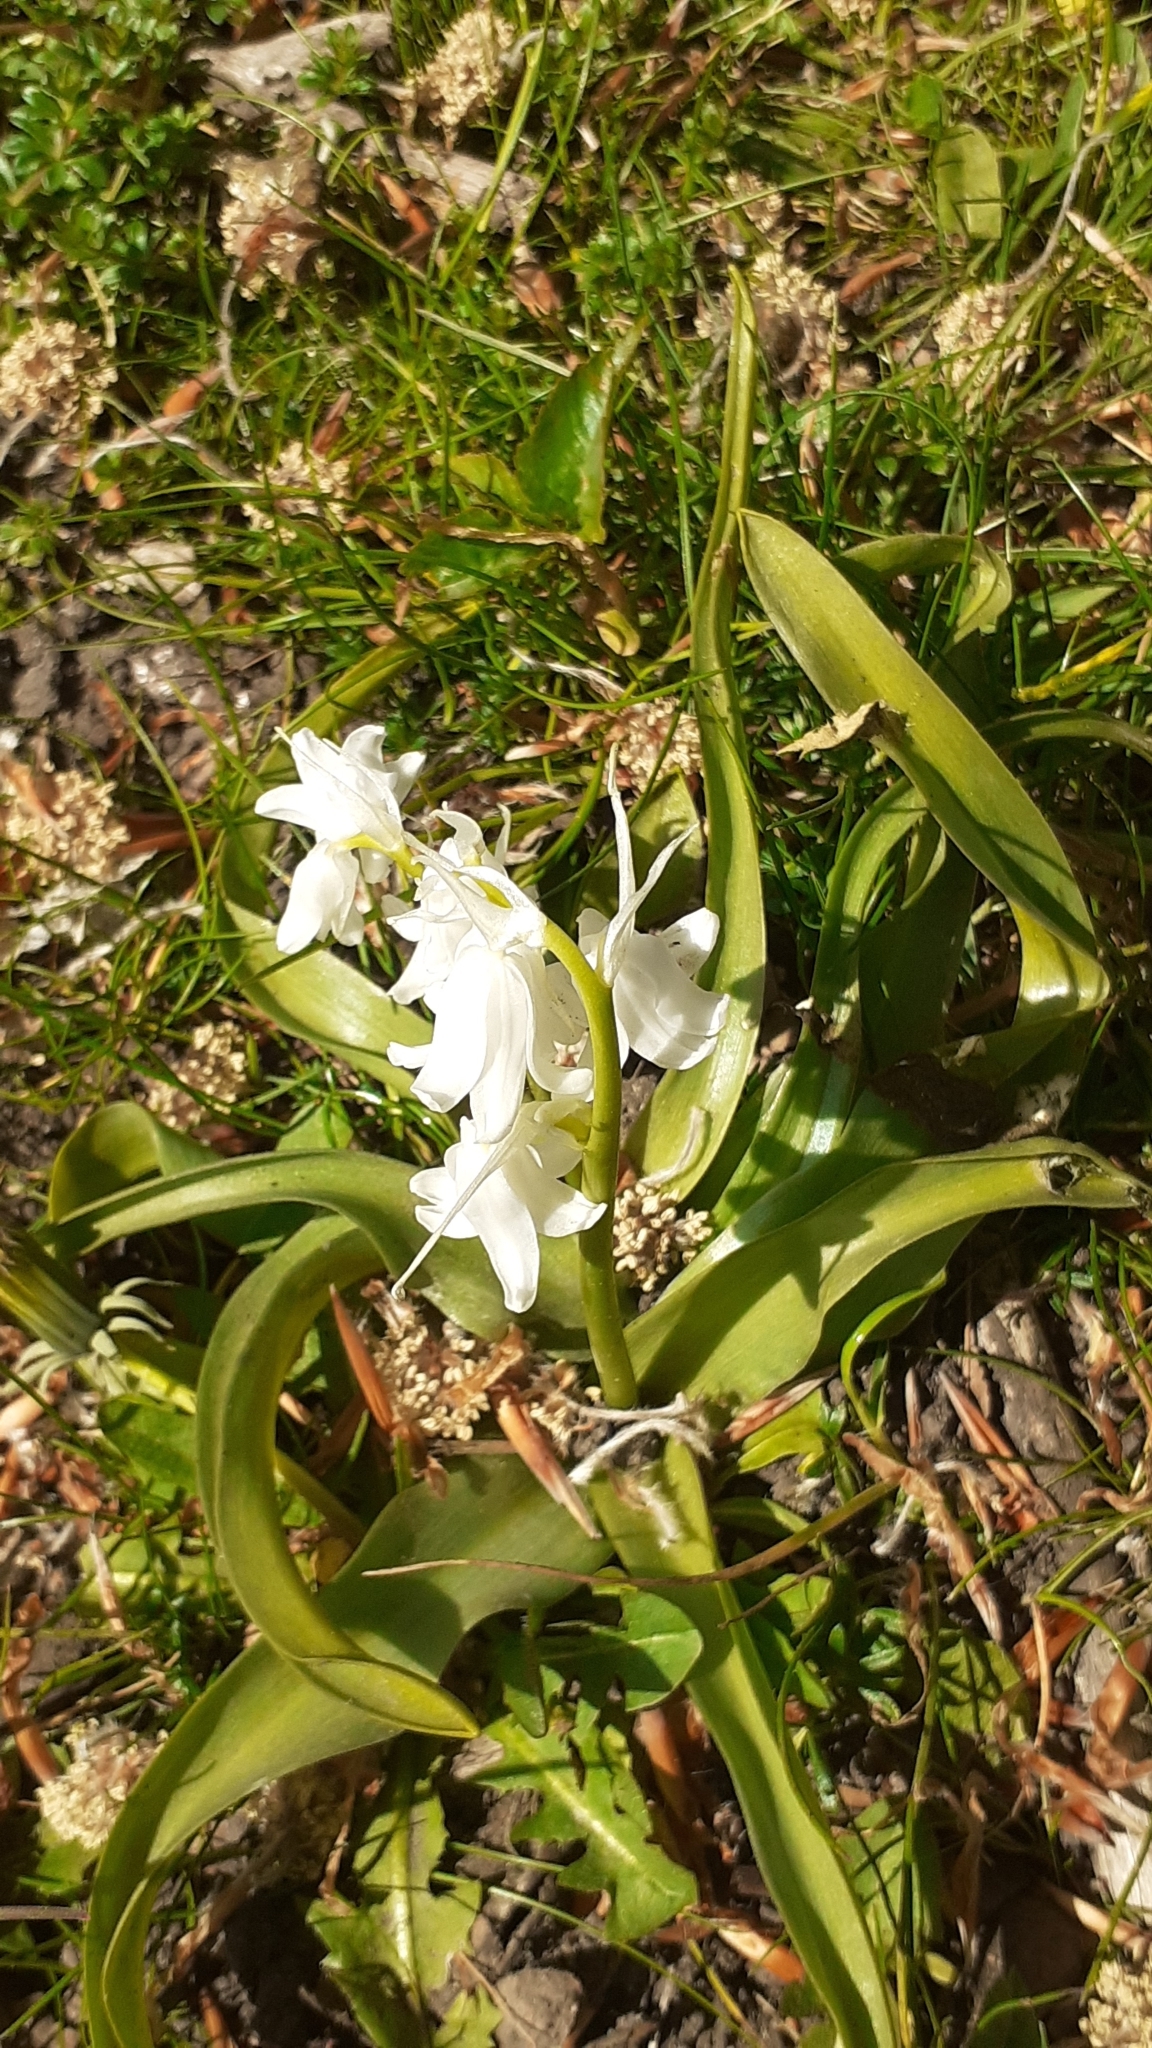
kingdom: Plantae
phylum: Tracheophyta
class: Liliopsida
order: Asparagales
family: Asparagaceae
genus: Hyacinthoides
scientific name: Hyacinthoides massartiana
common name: Hyacinthoides
